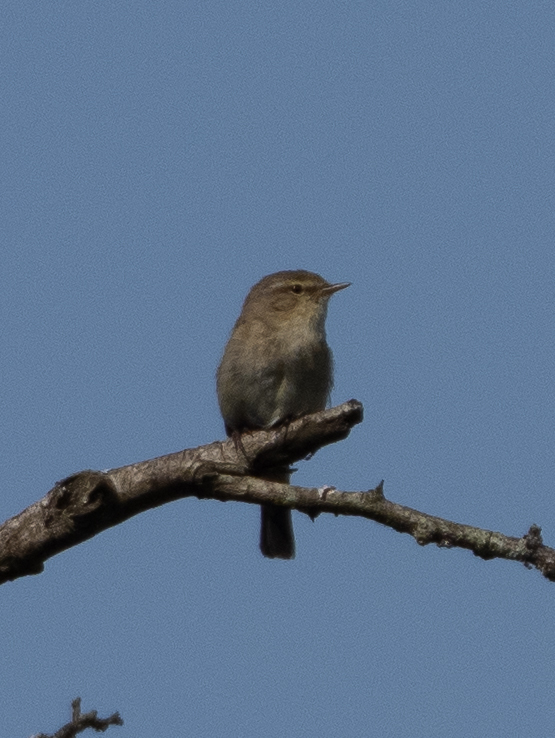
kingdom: Animalia
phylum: Chordata
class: Aves
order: Passeriformes
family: Phylloscopidae
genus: Phylloscopus
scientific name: Phylloscopus collybita
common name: Common chiffchaff
